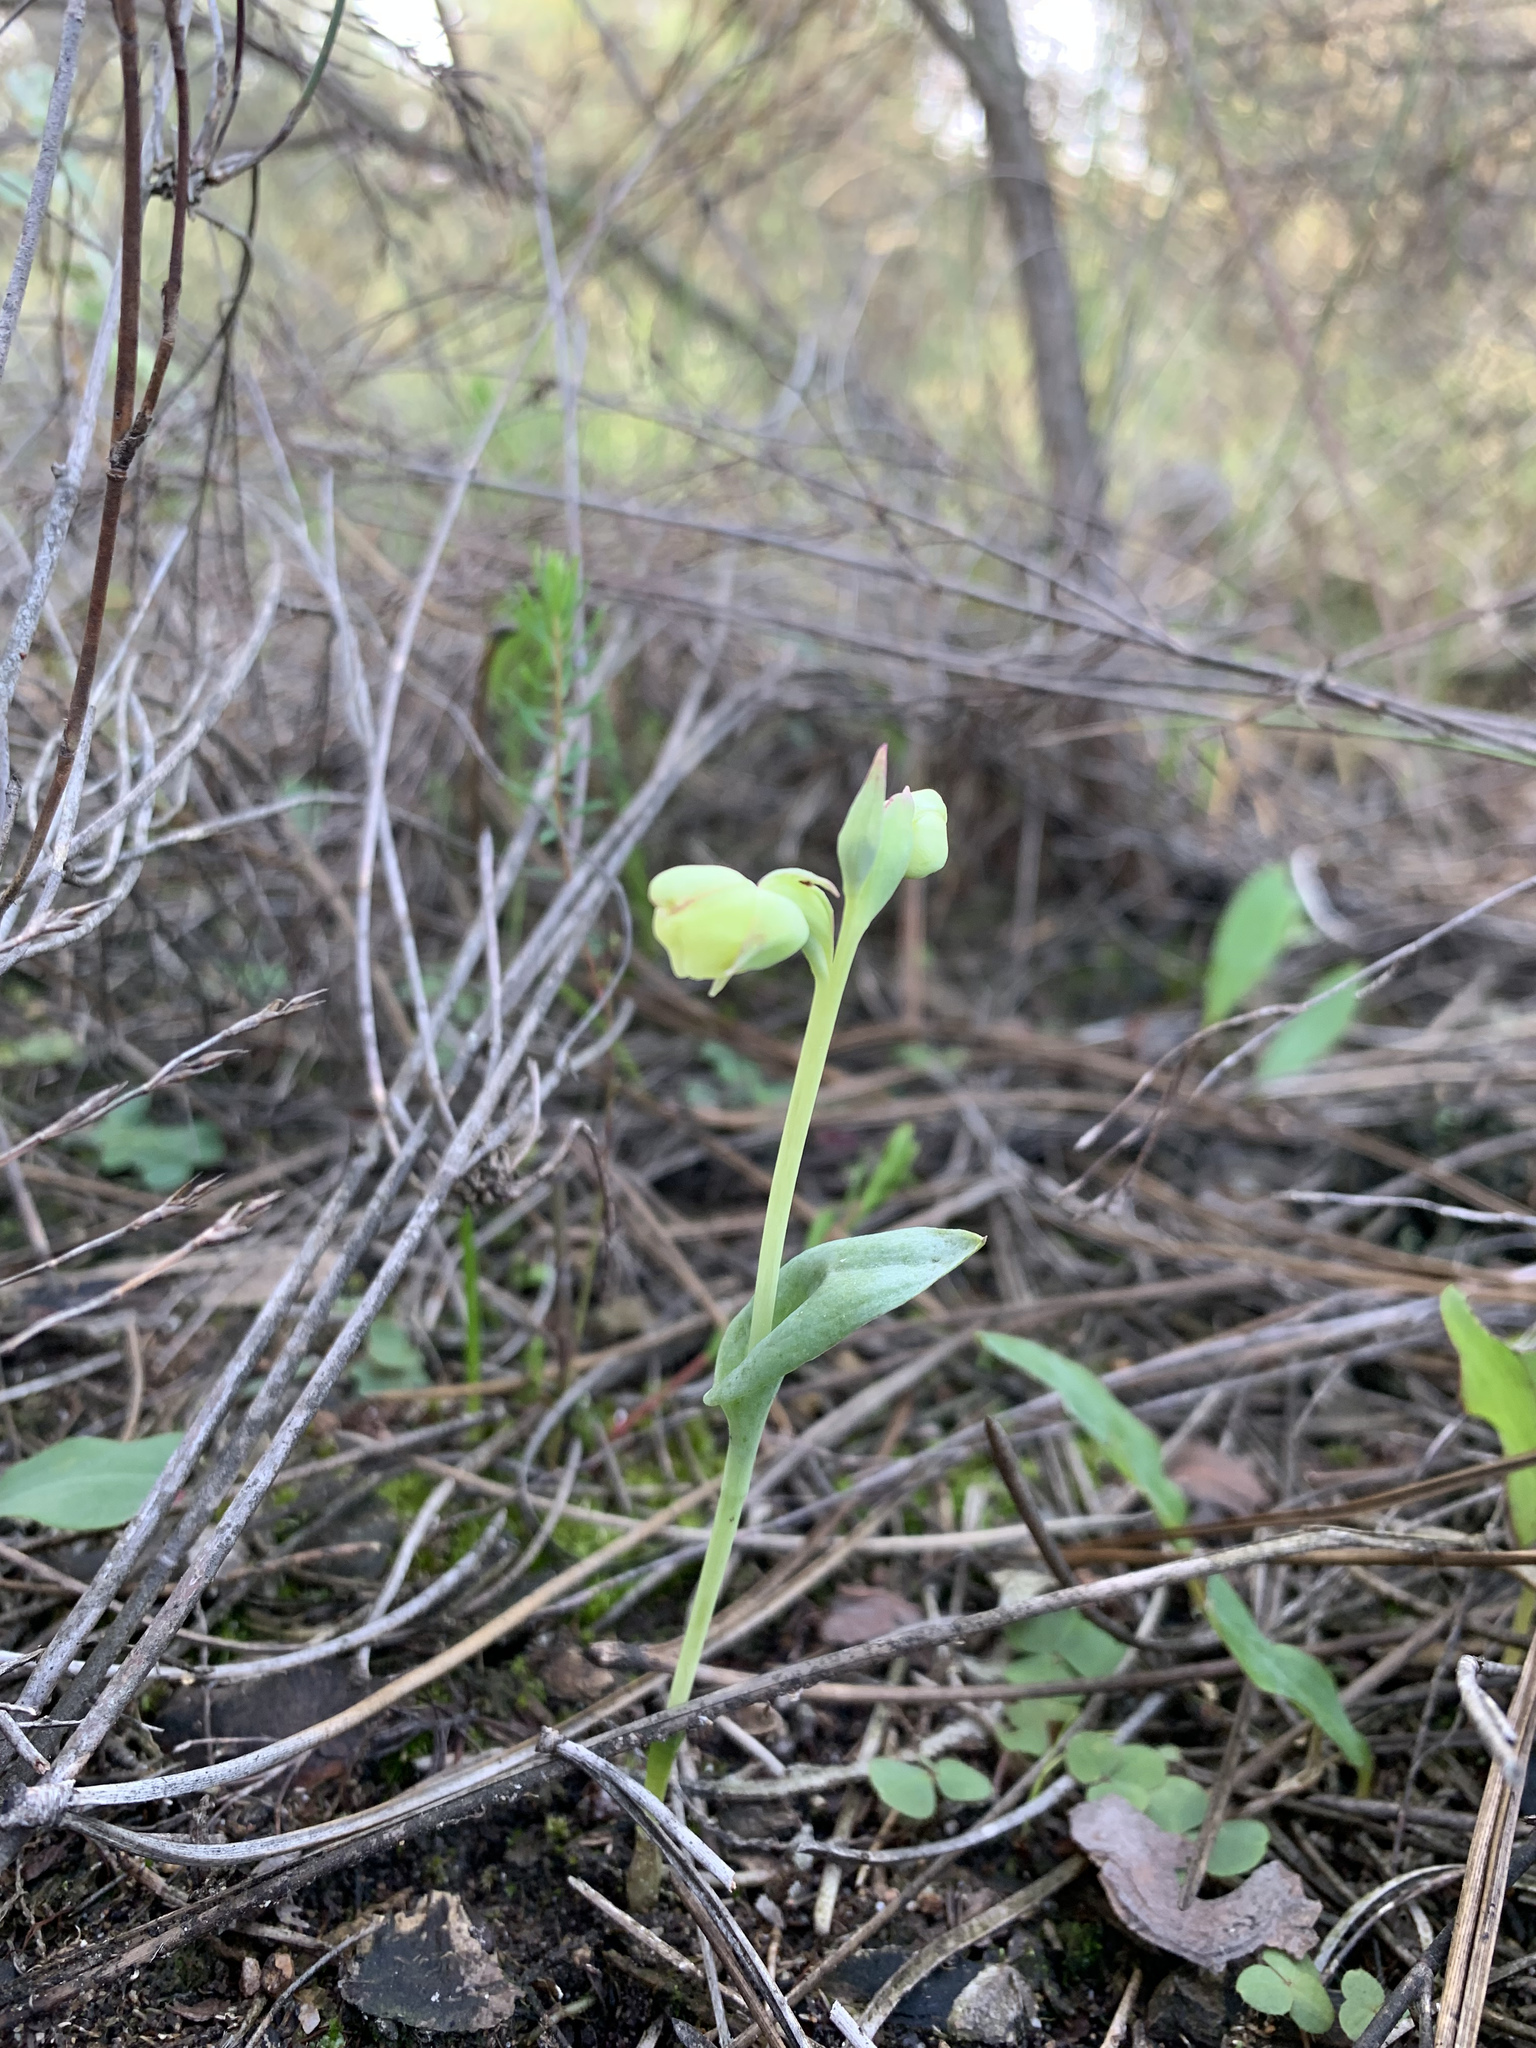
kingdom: Plantae
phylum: Tracheophyta
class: Liliopsida
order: Asparagales
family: Orchidaceae
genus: Pterygodium
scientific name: Pterygodium catholicum
